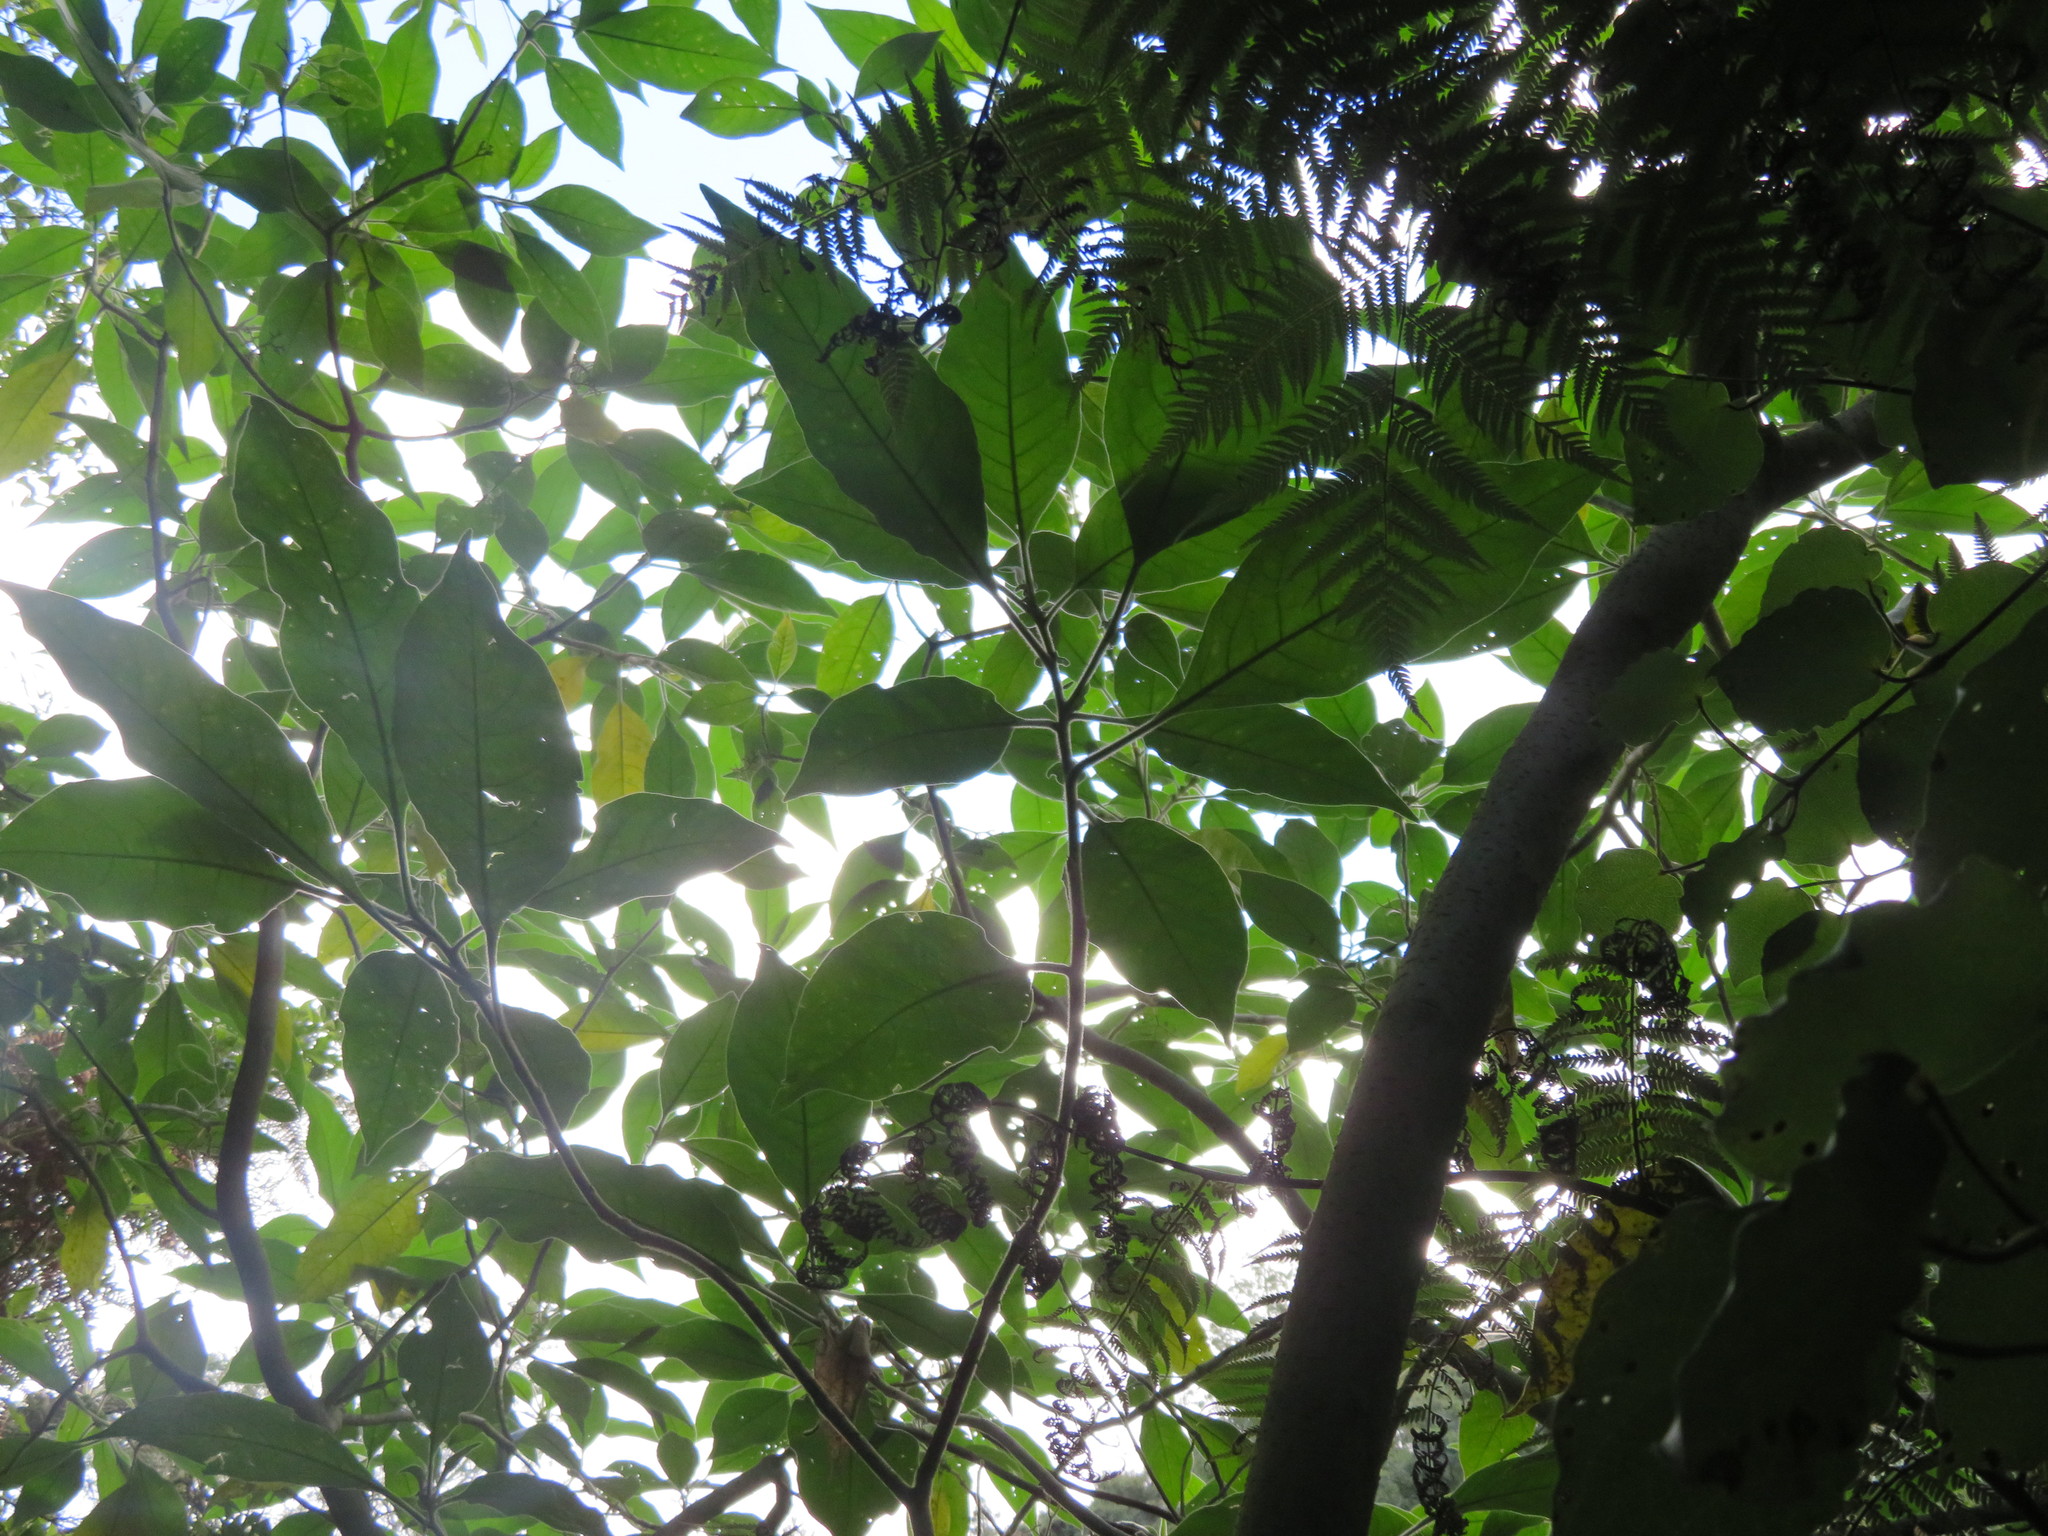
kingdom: Plantae
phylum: Tracheophyta
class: Magnoliopsida
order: Solanales
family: Solanaceae
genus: Solanum
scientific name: Solanum mauritianum
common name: Earleaf nightshade
